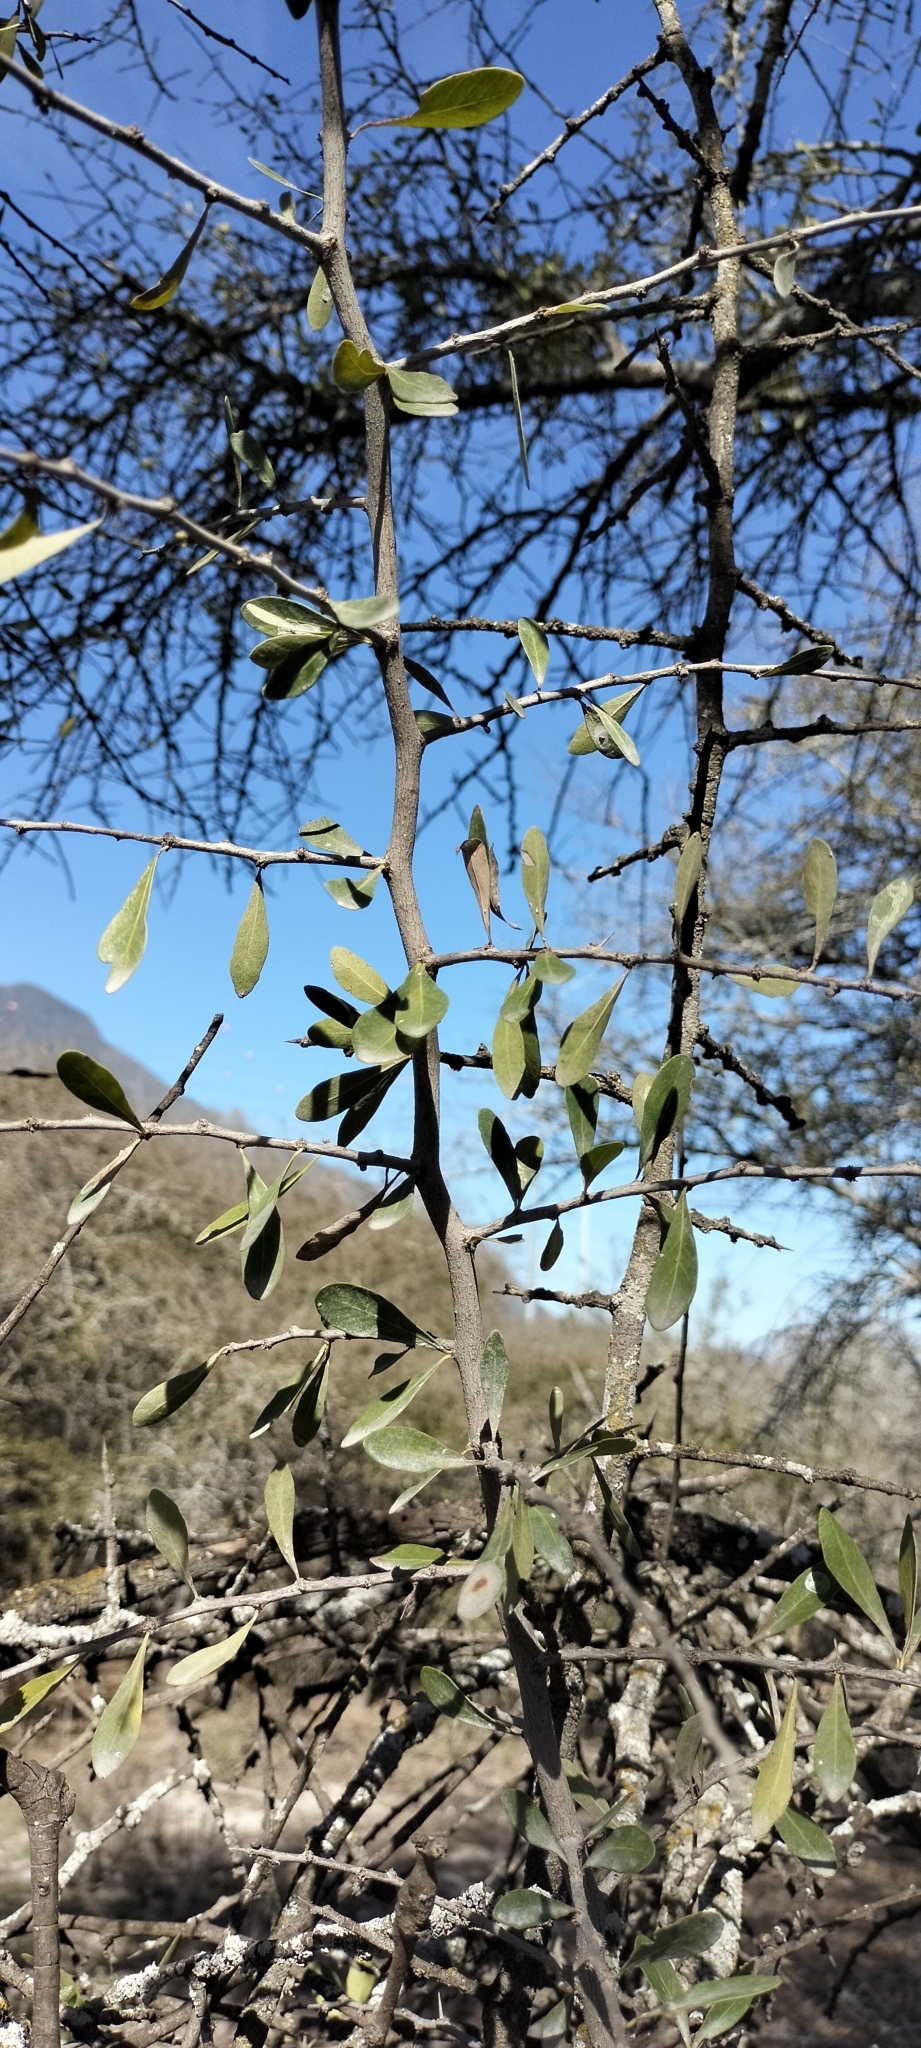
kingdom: Plantae
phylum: Tracheophyta
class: Magnoliopsida
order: Ericales
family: Sapotaceae
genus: Sideroxylon
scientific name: Sideroxylon celastrinum
